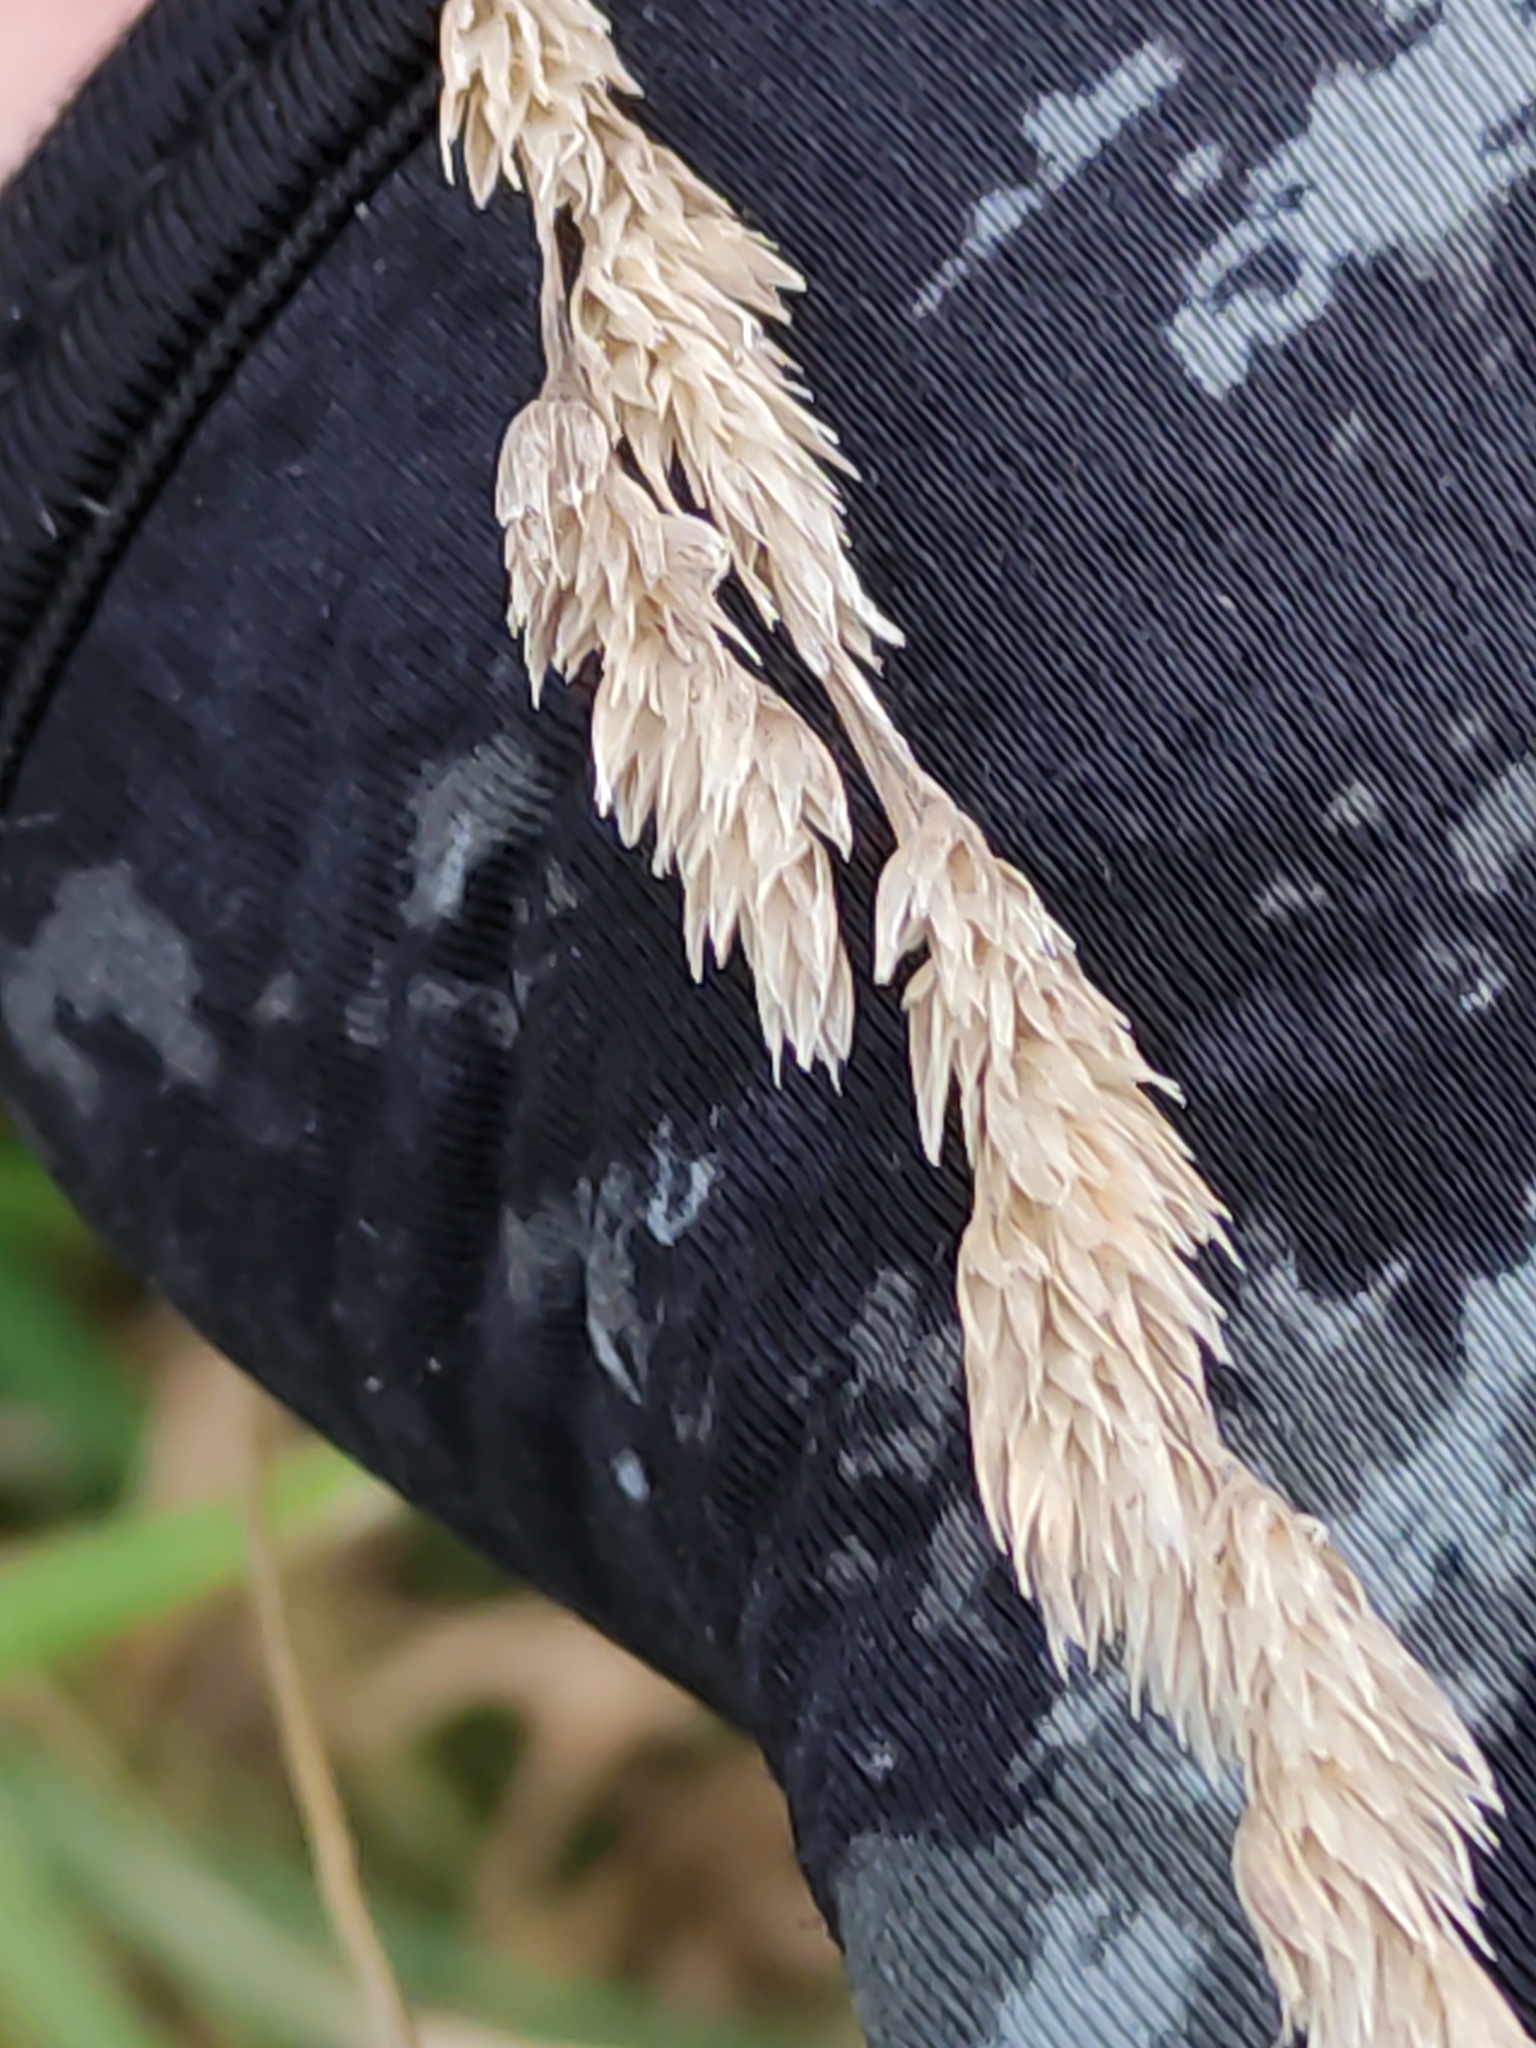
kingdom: Plantae
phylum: Tracheophyta
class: Liliopsida
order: Poales
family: Poaceae
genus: Dactylis
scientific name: Dactylis glomerata
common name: Orchardgrass
